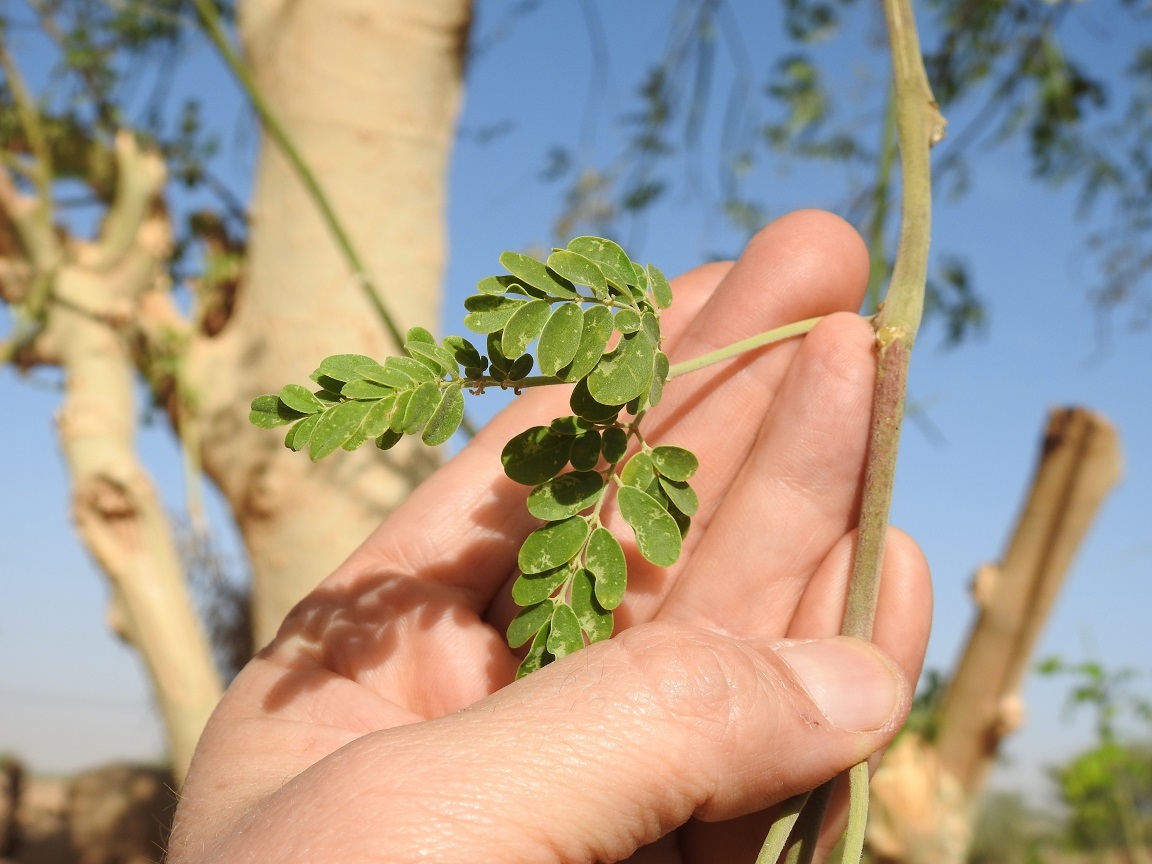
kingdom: Plantae
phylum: Tracheophyta
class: Magnoliopsida
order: Brassicales
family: Moringaceae
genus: Moringa
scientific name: Moringa oleifera
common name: Horseradish-tree
